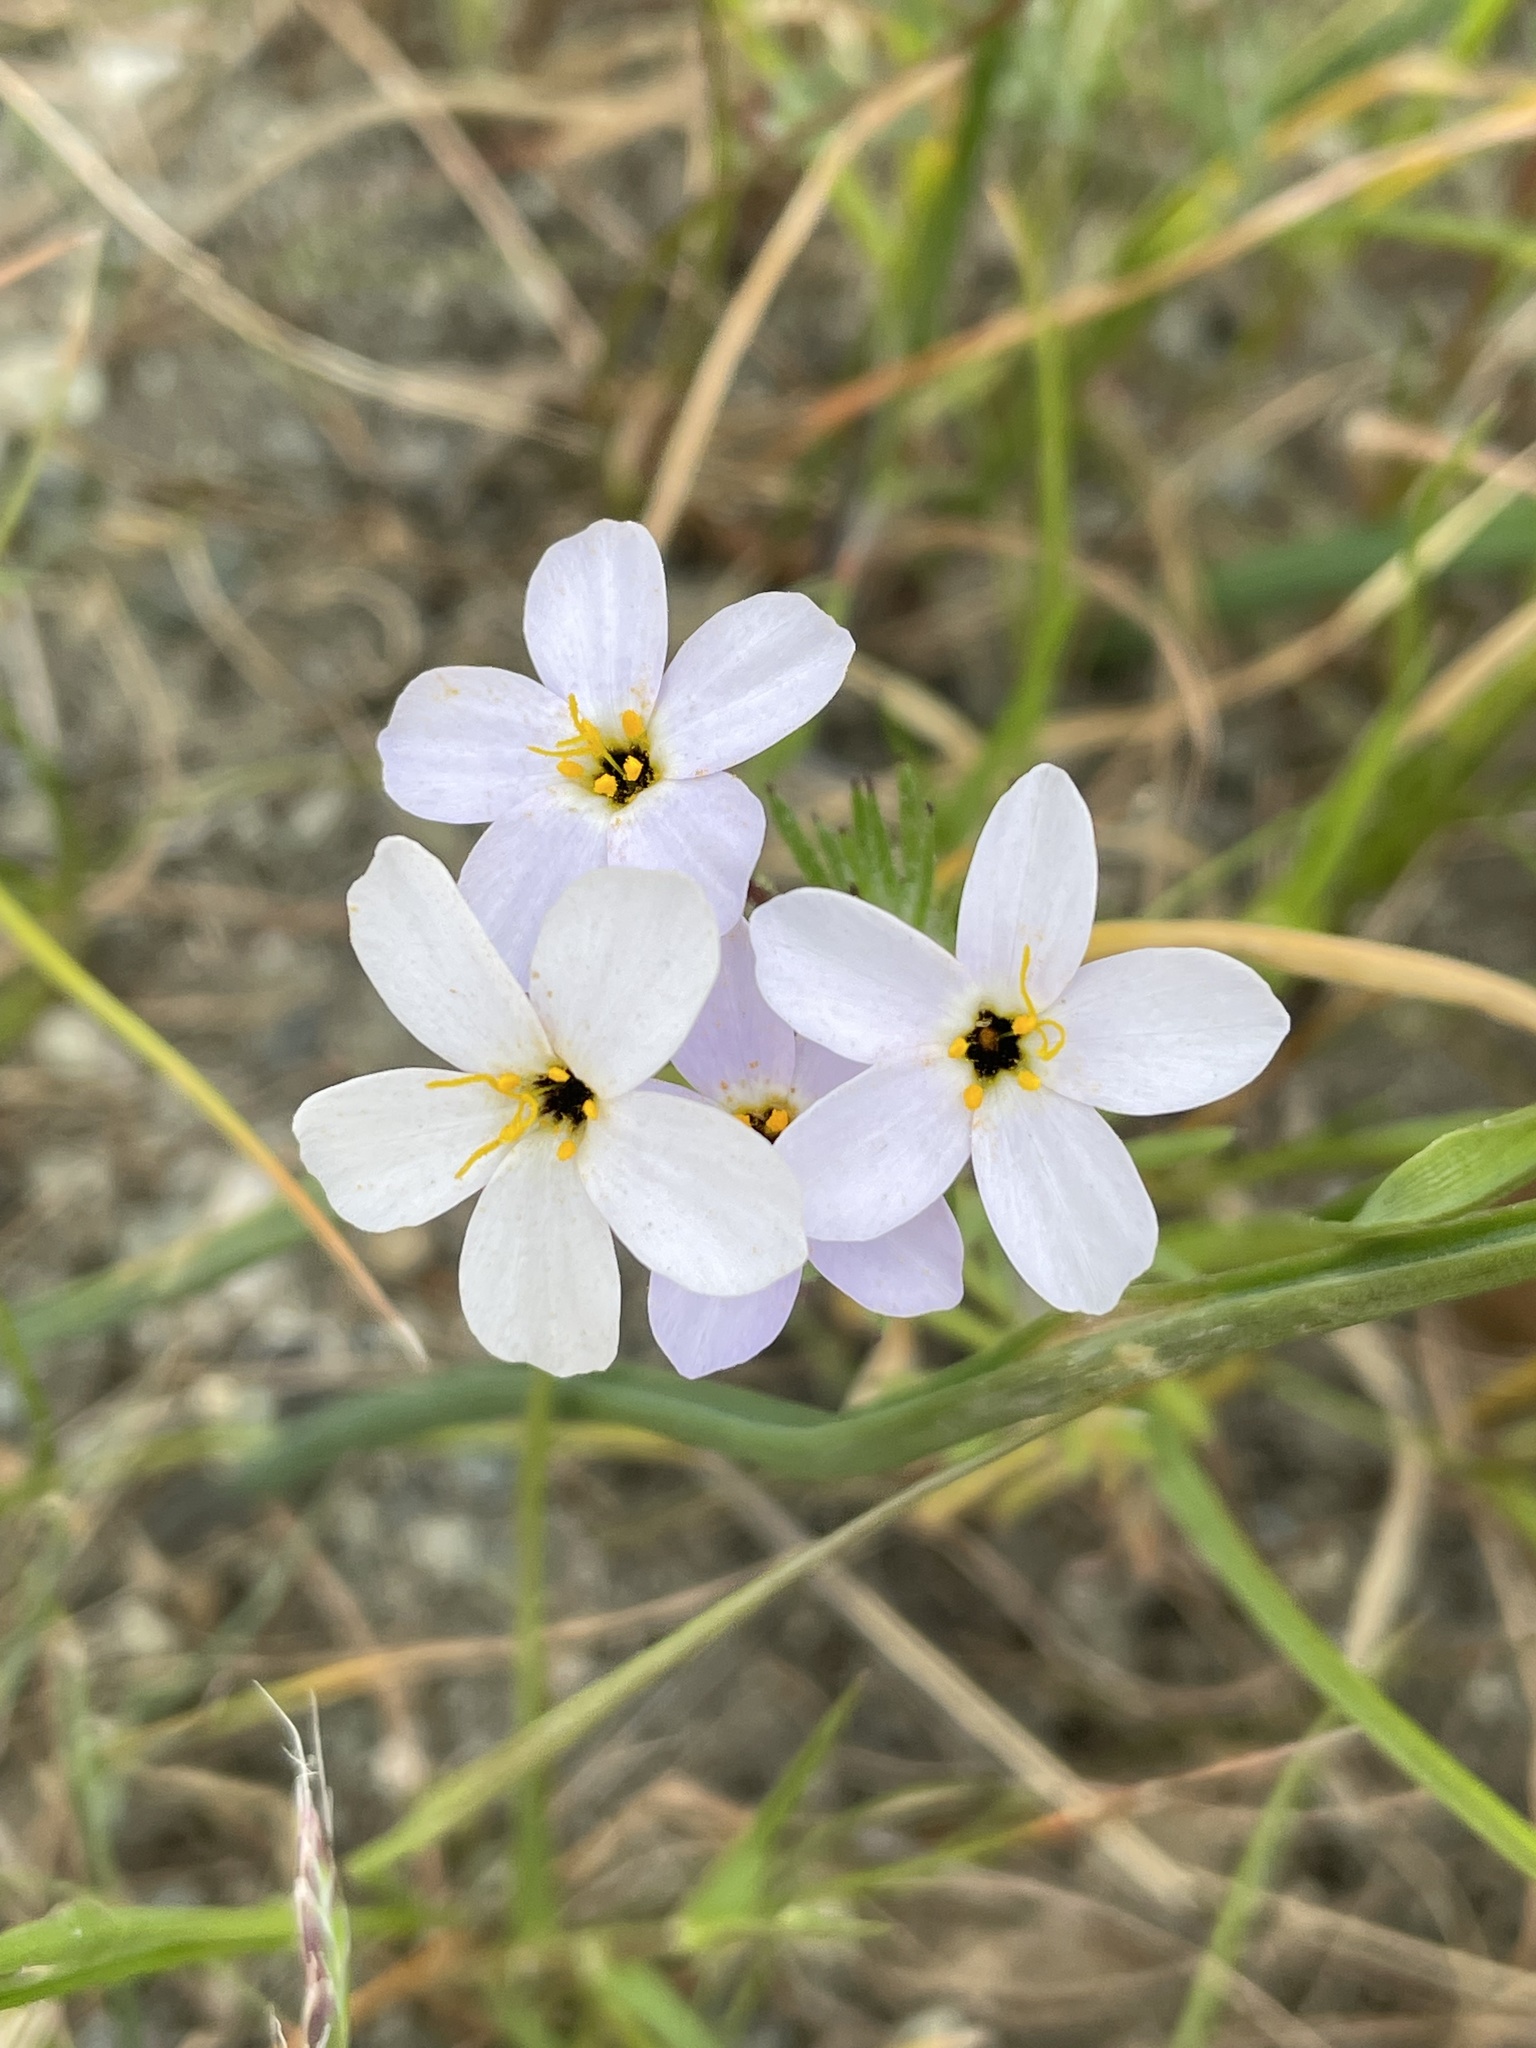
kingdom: Plantae
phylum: Tracheophyta
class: Magnoliopsida
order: Ericales
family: Polemoniaceae
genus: Leptosiphon
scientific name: Leptosiphon androsaceus
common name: False babystars
